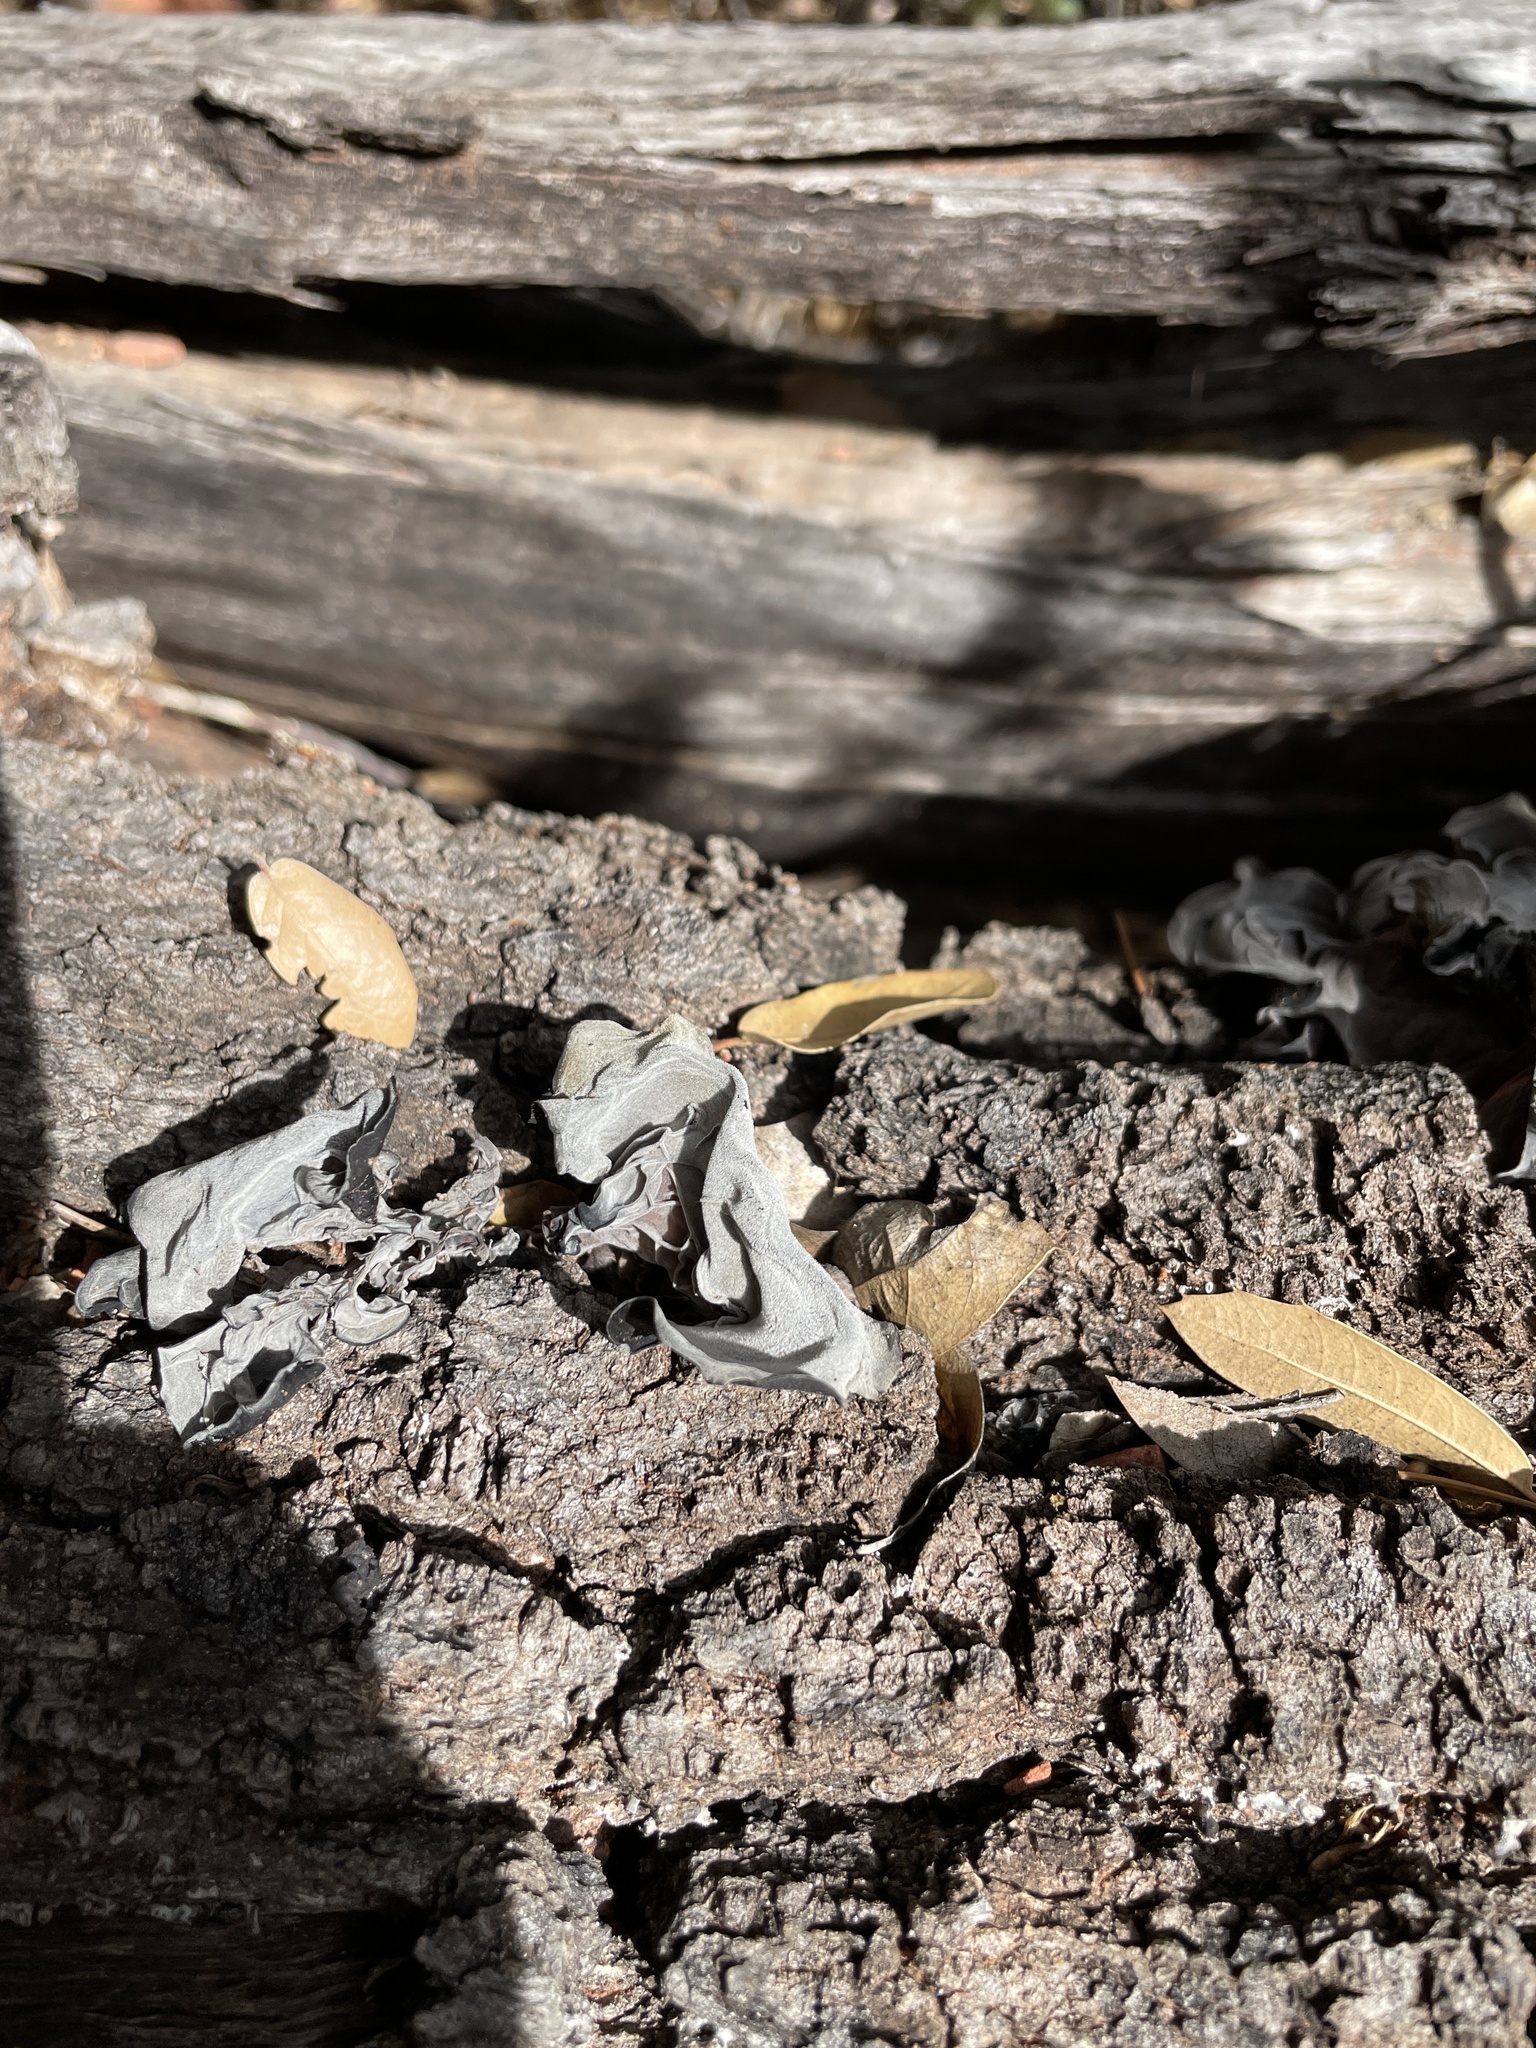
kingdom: Fungi
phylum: Basidiomycota
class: Agaricomycetes
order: Auriculariales
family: Auriculariaceae
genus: Auricularia
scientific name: Auricularia angiospermarum
